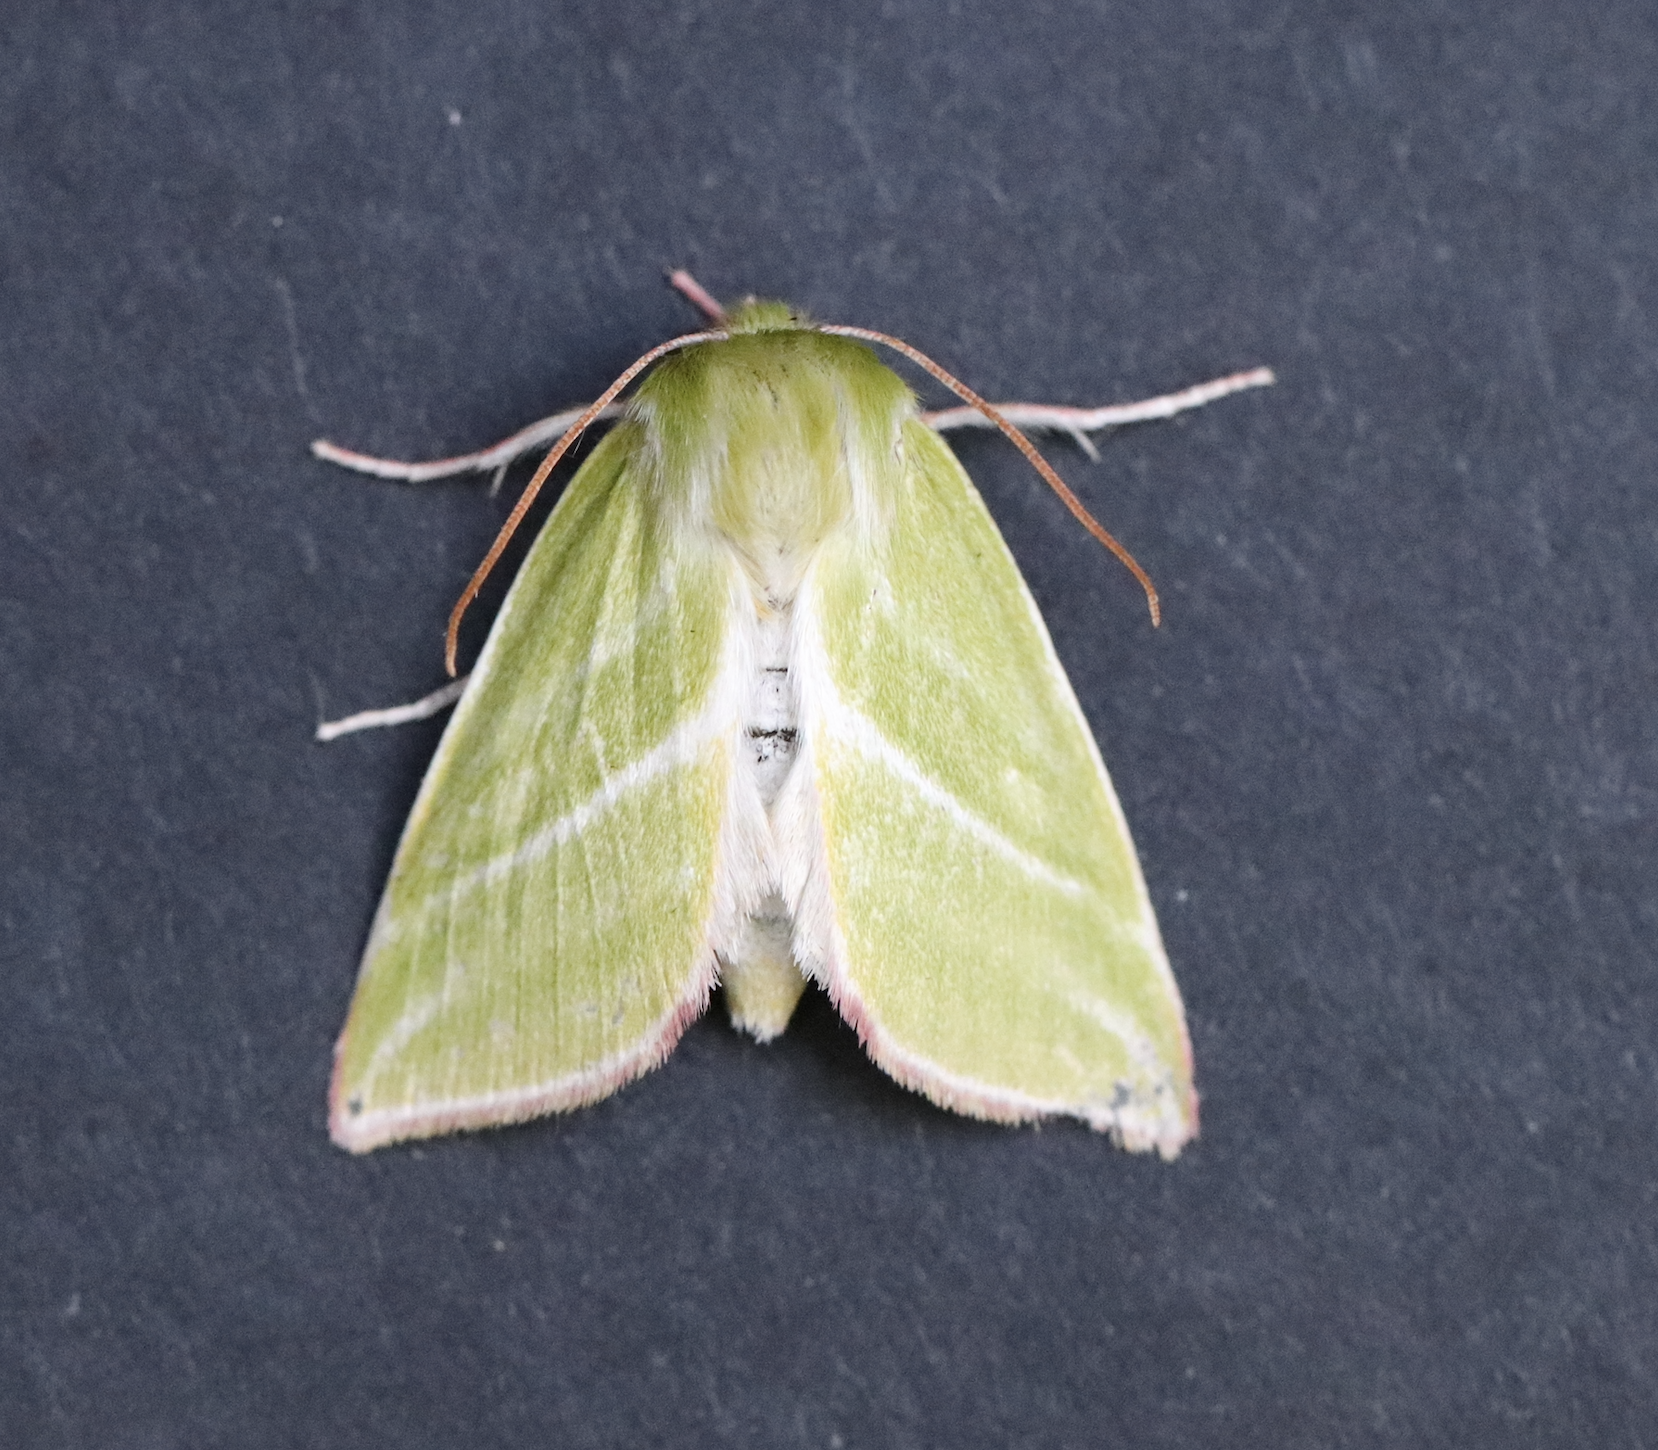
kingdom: Animalia
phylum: Arthropoda
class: Insecta
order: Lepidoptera
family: Nolidae
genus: Pseudoips
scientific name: Pseudoips prasinana
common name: Green silver-lines
